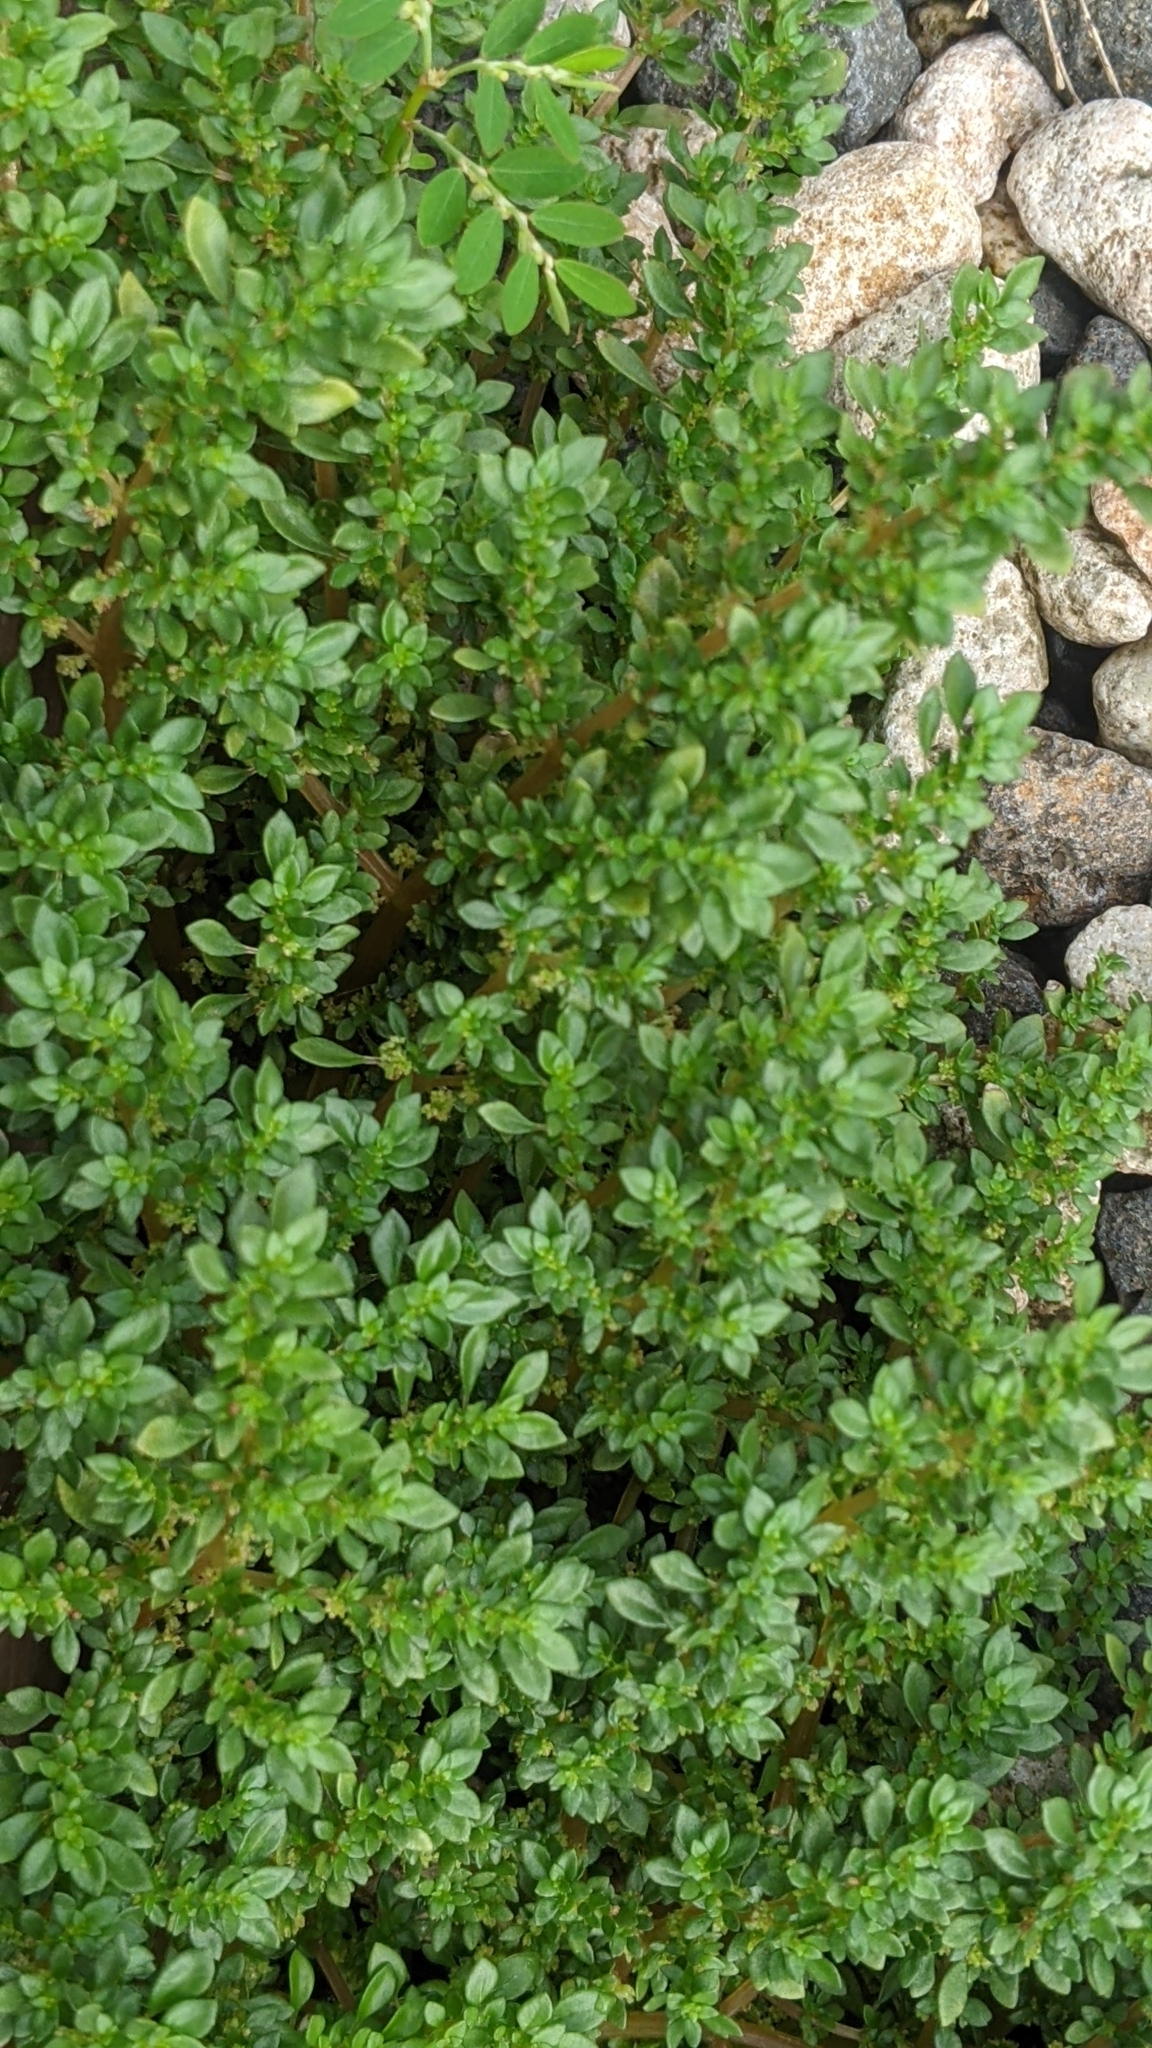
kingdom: Plantae
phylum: Tracheophyta
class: Magnoliopsida
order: Rosales
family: Urticaceae
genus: Pilea
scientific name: Pilea microphylla
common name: Artillery-plant
